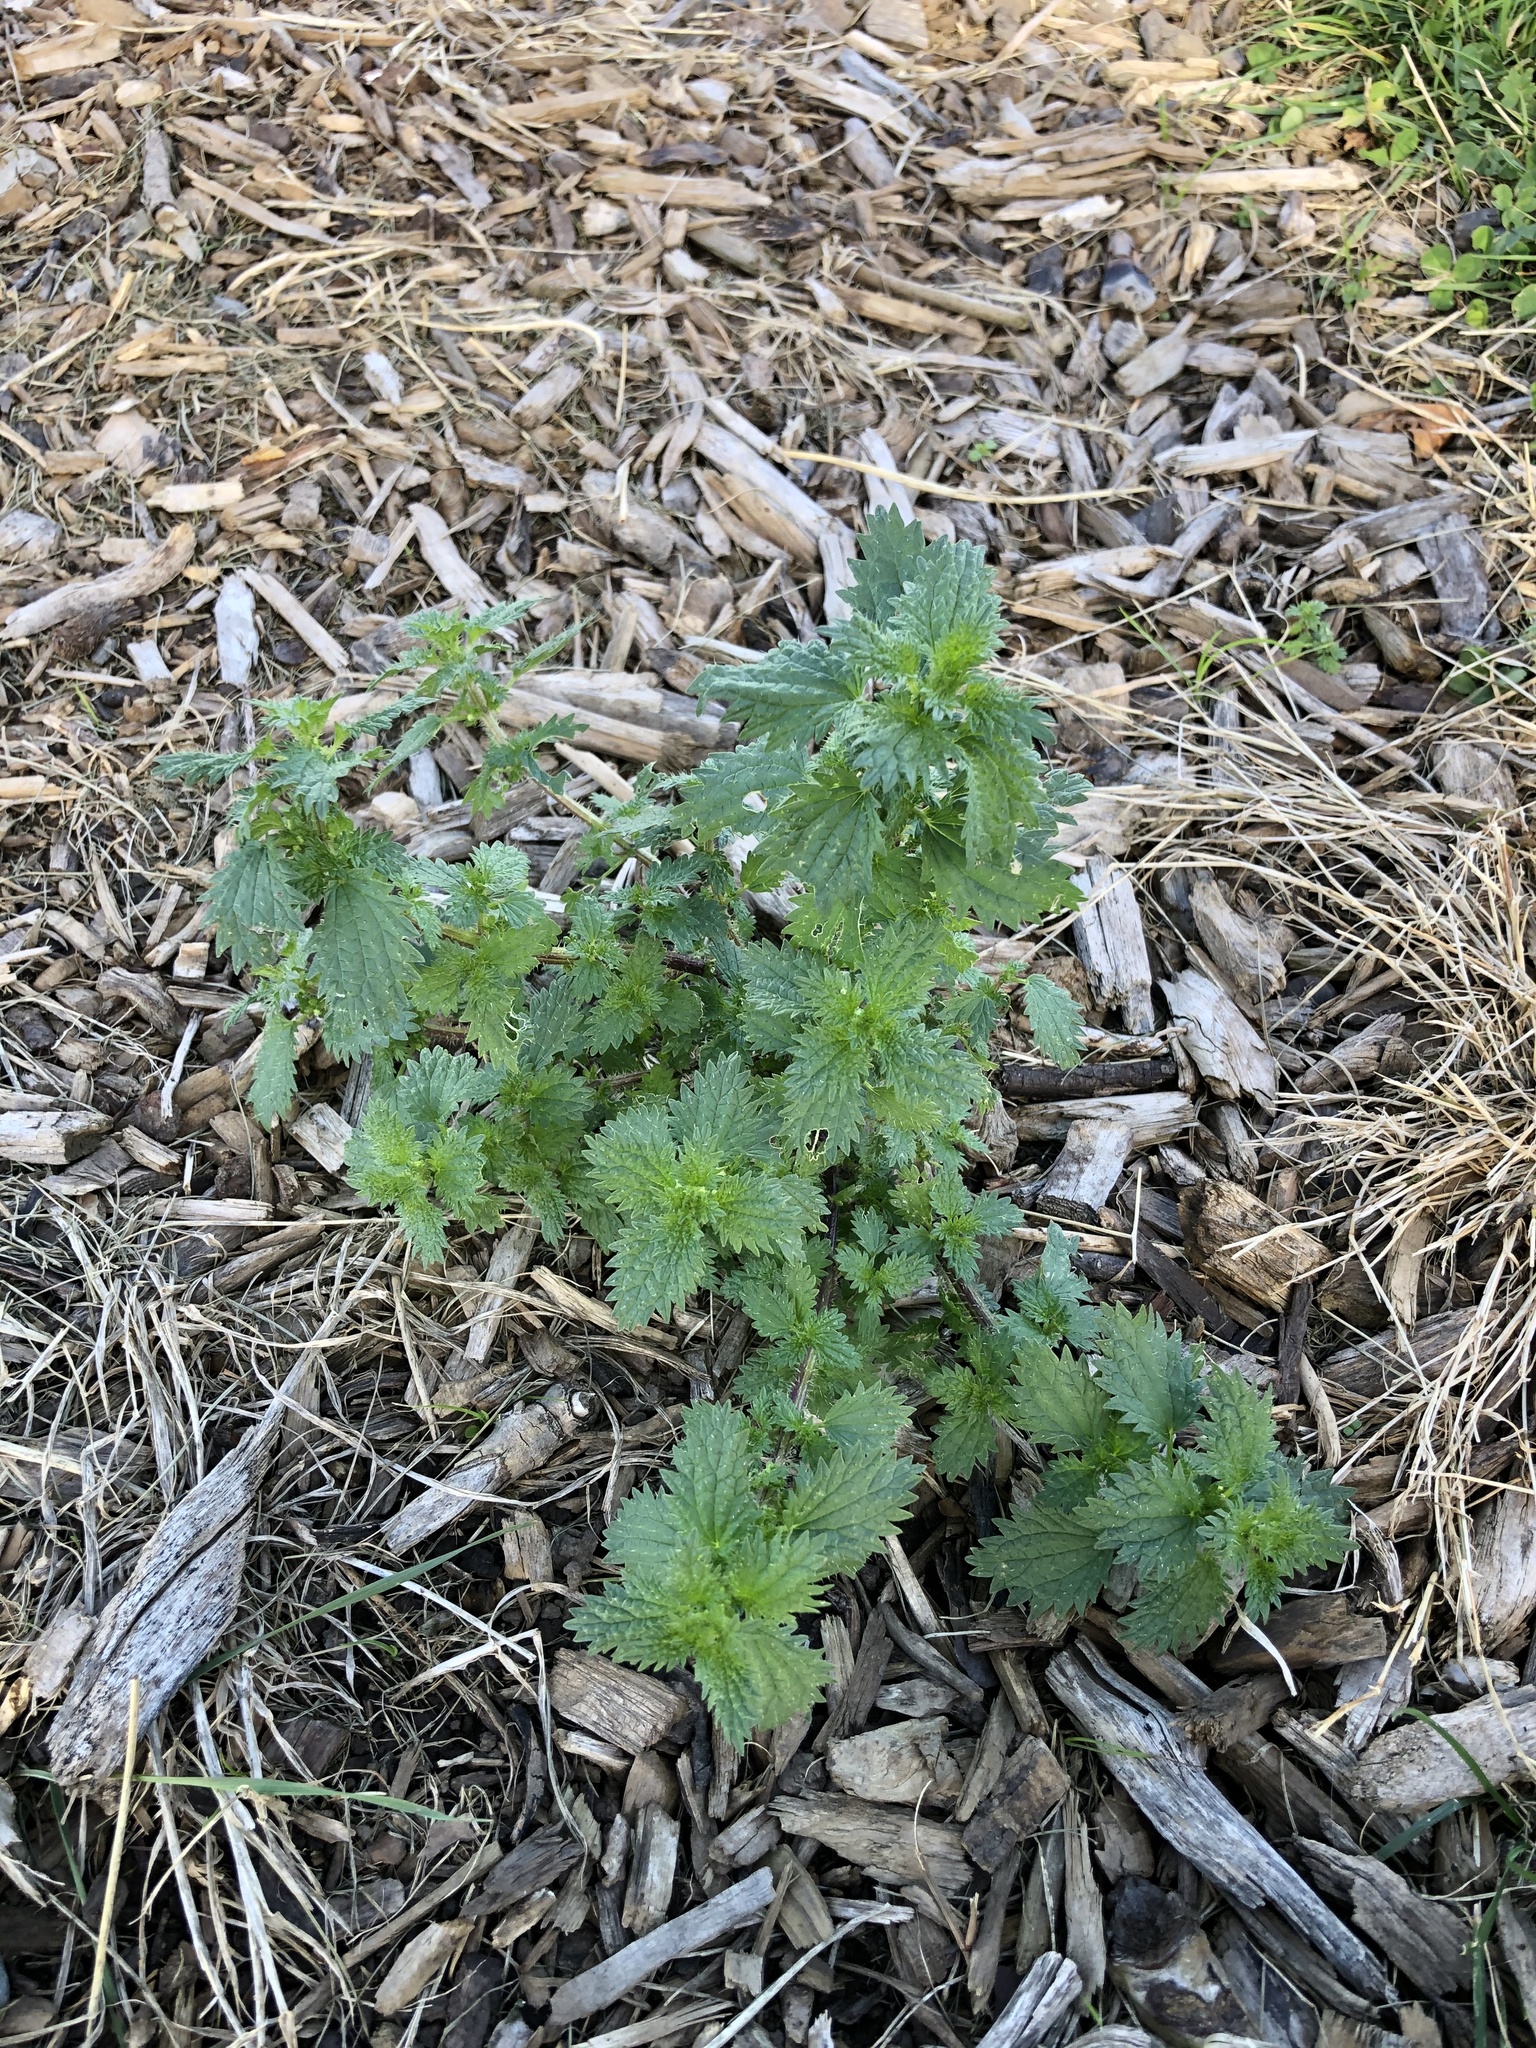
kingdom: Plantae
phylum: Tracheophyta
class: Magnoliopsida
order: Rosales
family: Urticaceae
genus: Urtica
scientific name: Urtica urens
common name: Dwarf nettle
